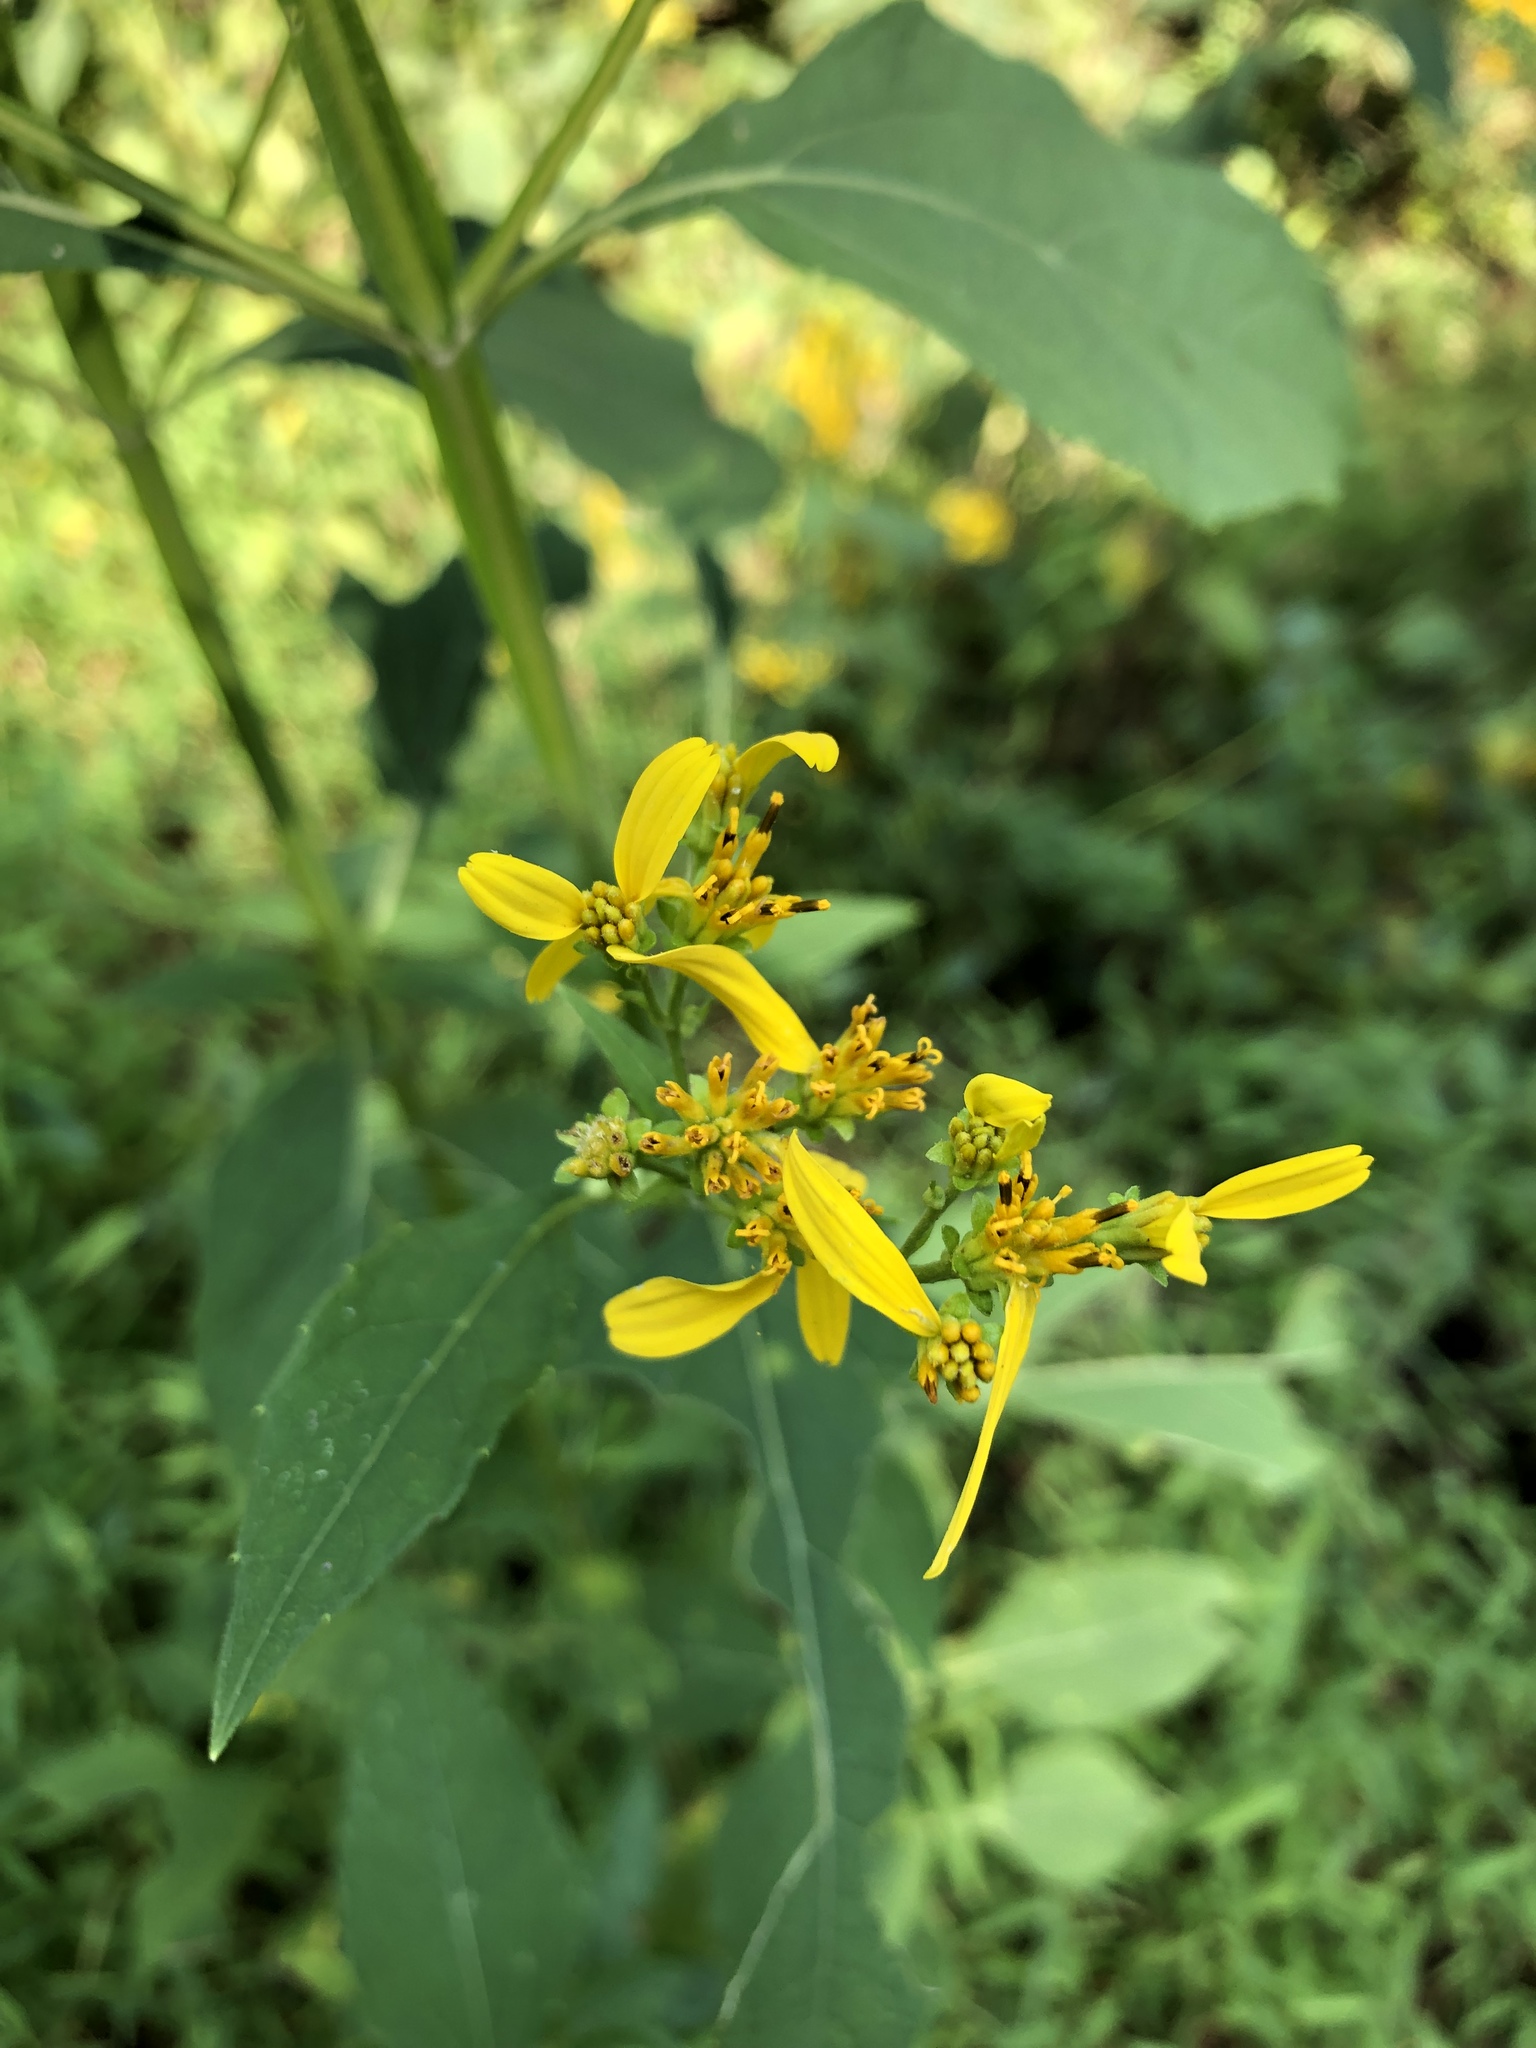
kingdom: Plantae
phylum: Tracheophyta
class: Magnoliopsida
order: Asterales
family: Asteraceae
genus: Verbesina
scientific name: Verbesina occidentalis
